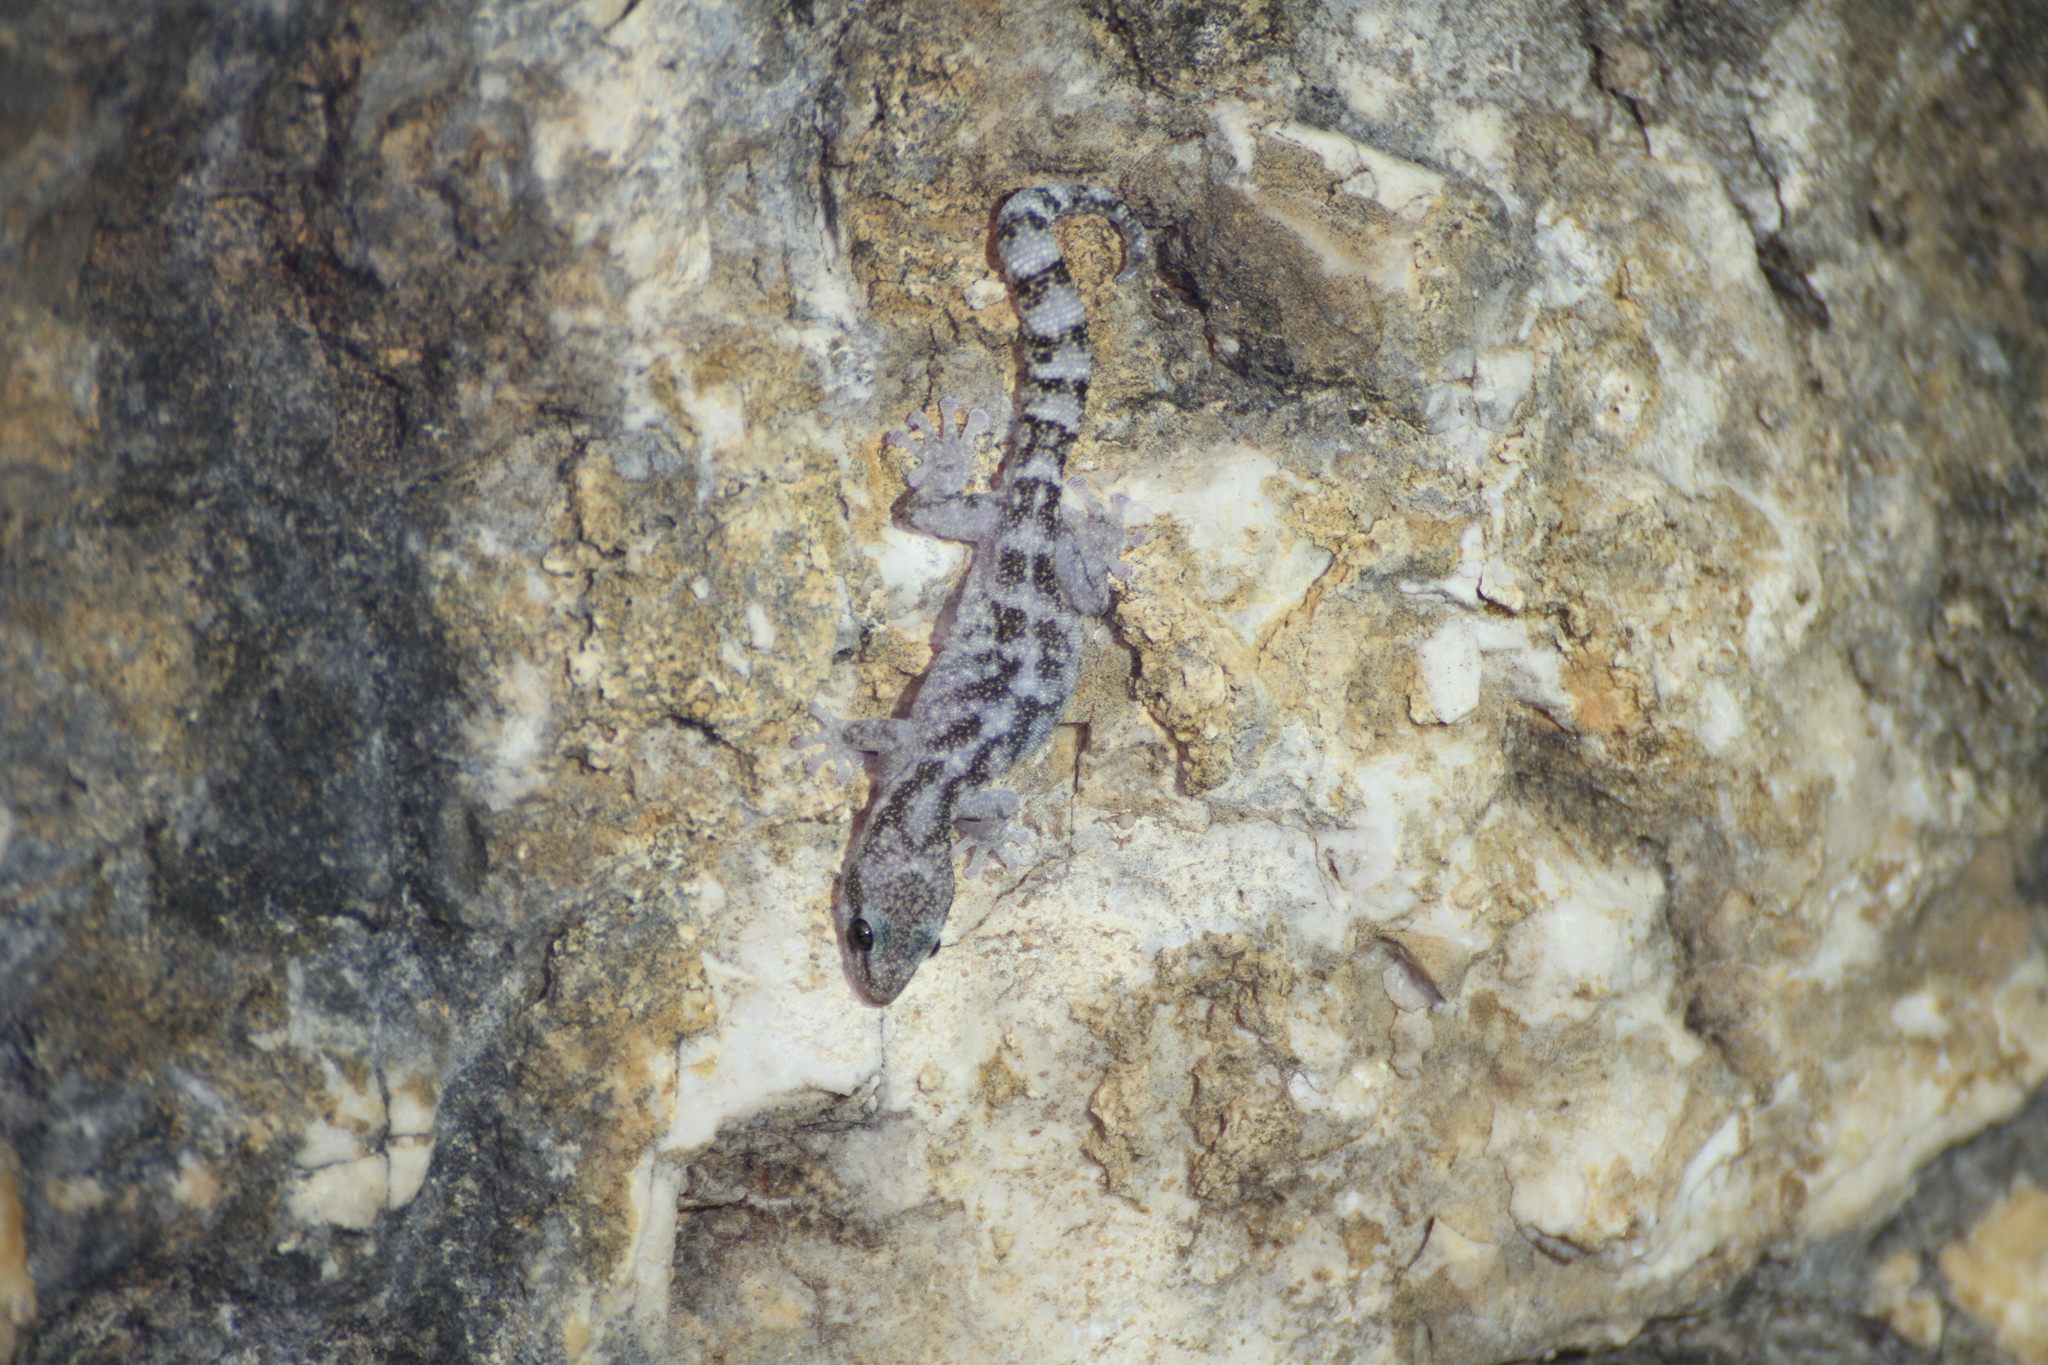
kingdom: Animalia
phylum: Chordata
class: Squamata
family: Sphaerodactylidae
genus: Euleptes
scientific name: Euleptes europaea
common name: English common name not available
